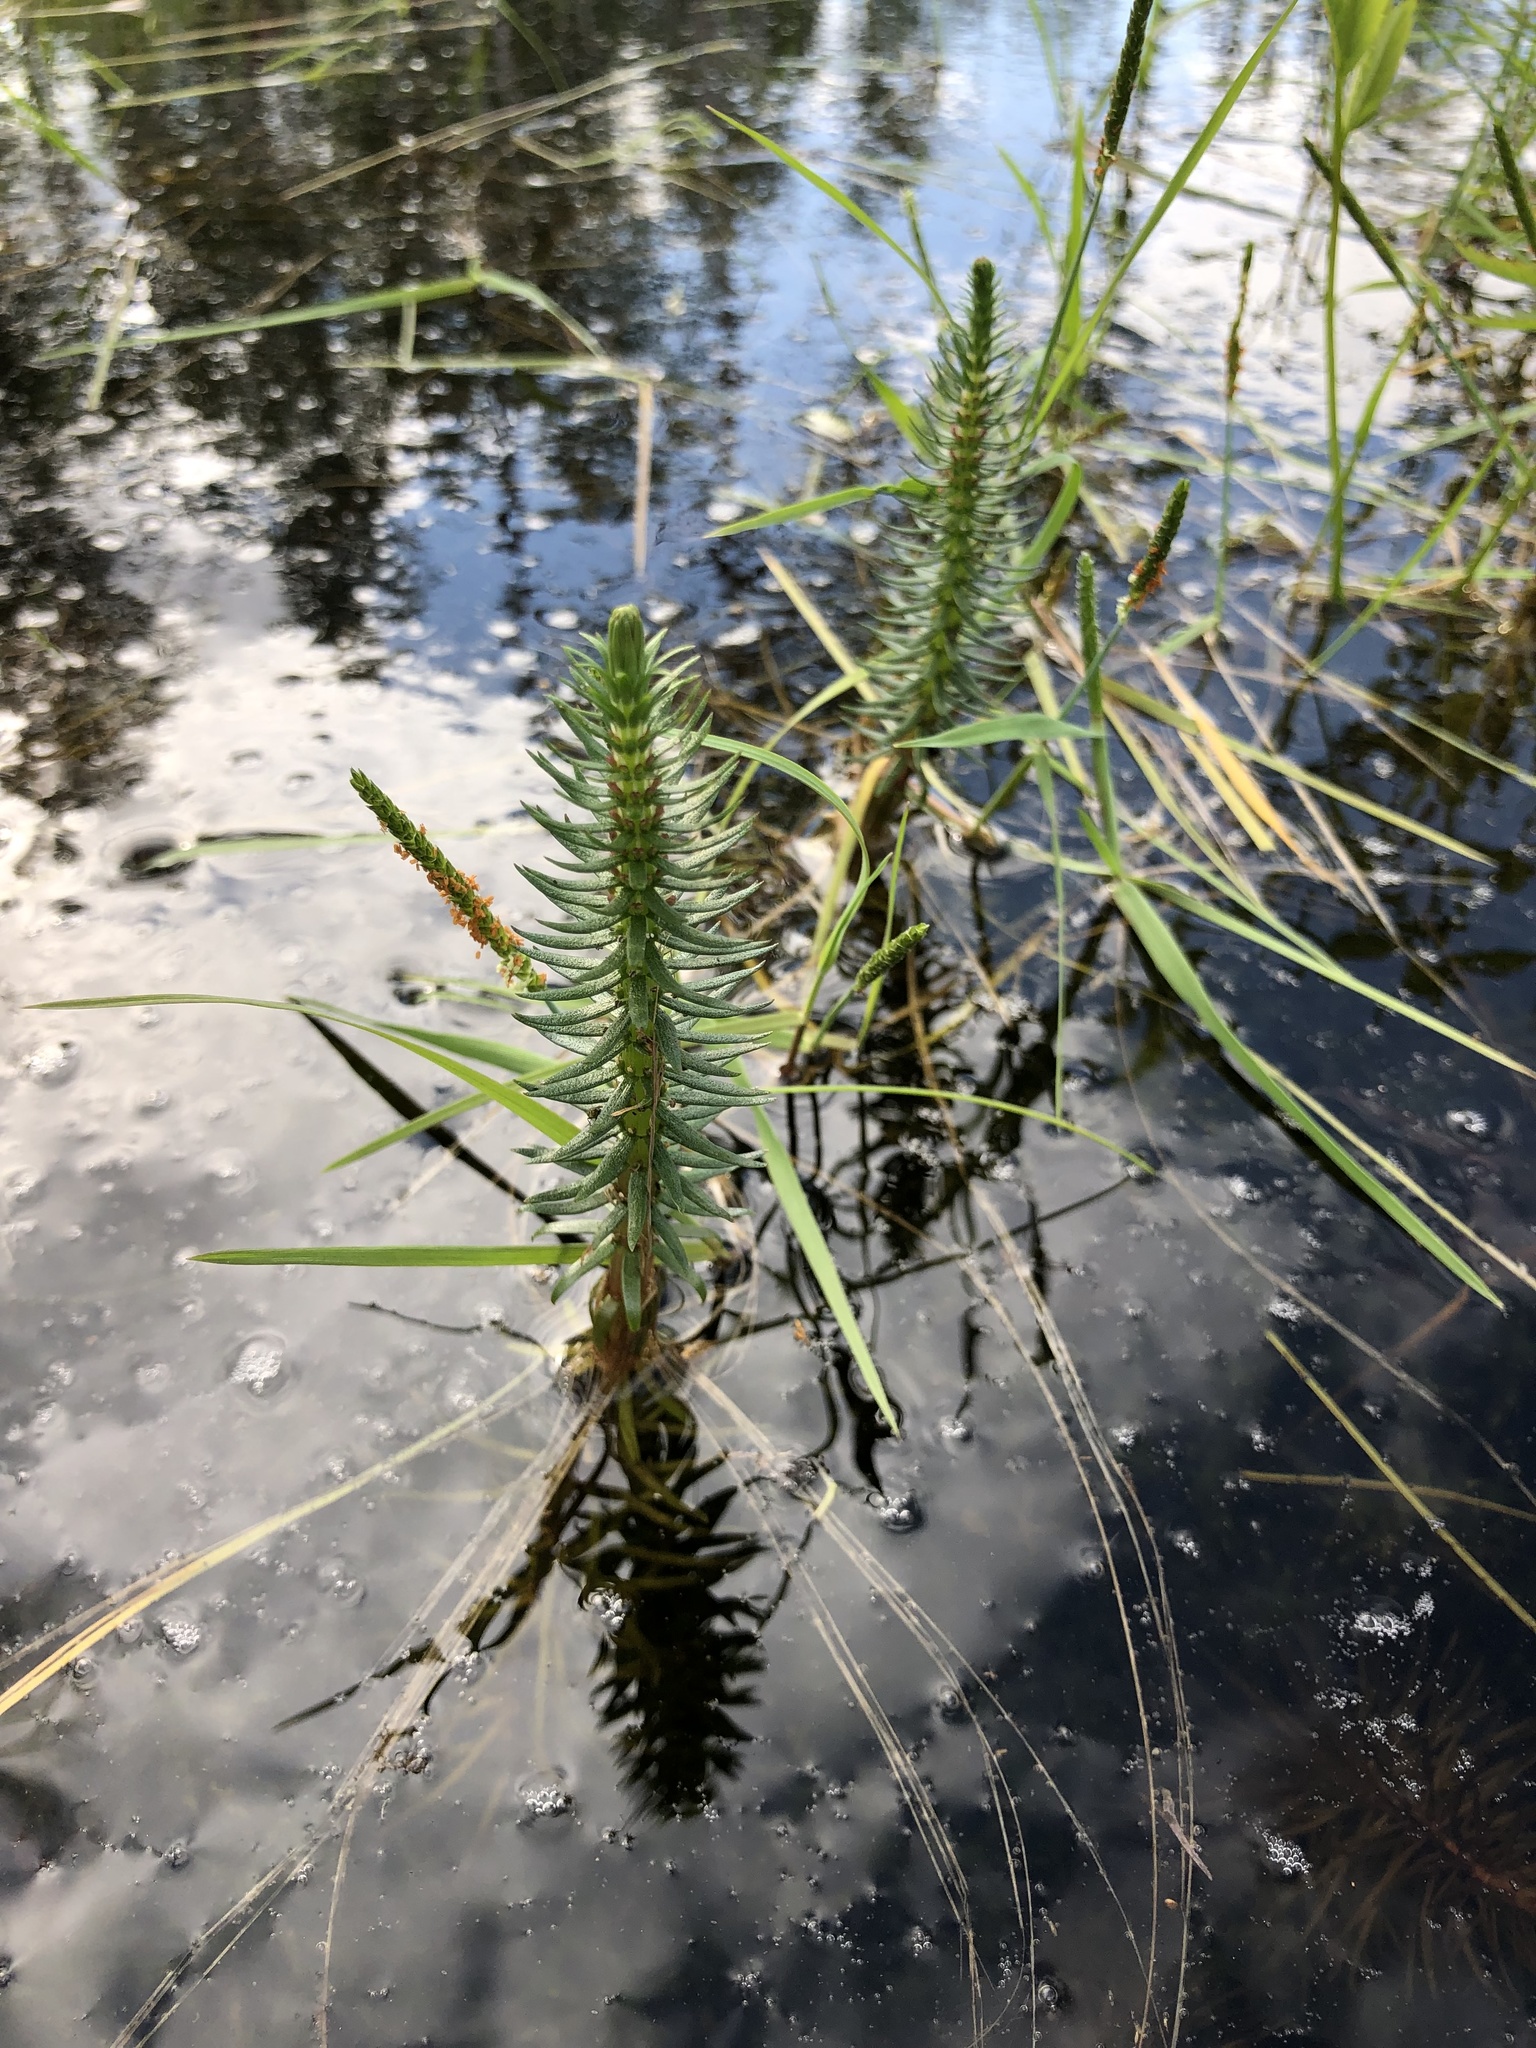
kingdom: Plantae
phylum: Tracheophyta
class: Magnoliopsida
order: Lamiales
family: Plantaginaceae
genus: Hippuris
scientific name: Hippuris vulgaris
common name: Mare's-tail
